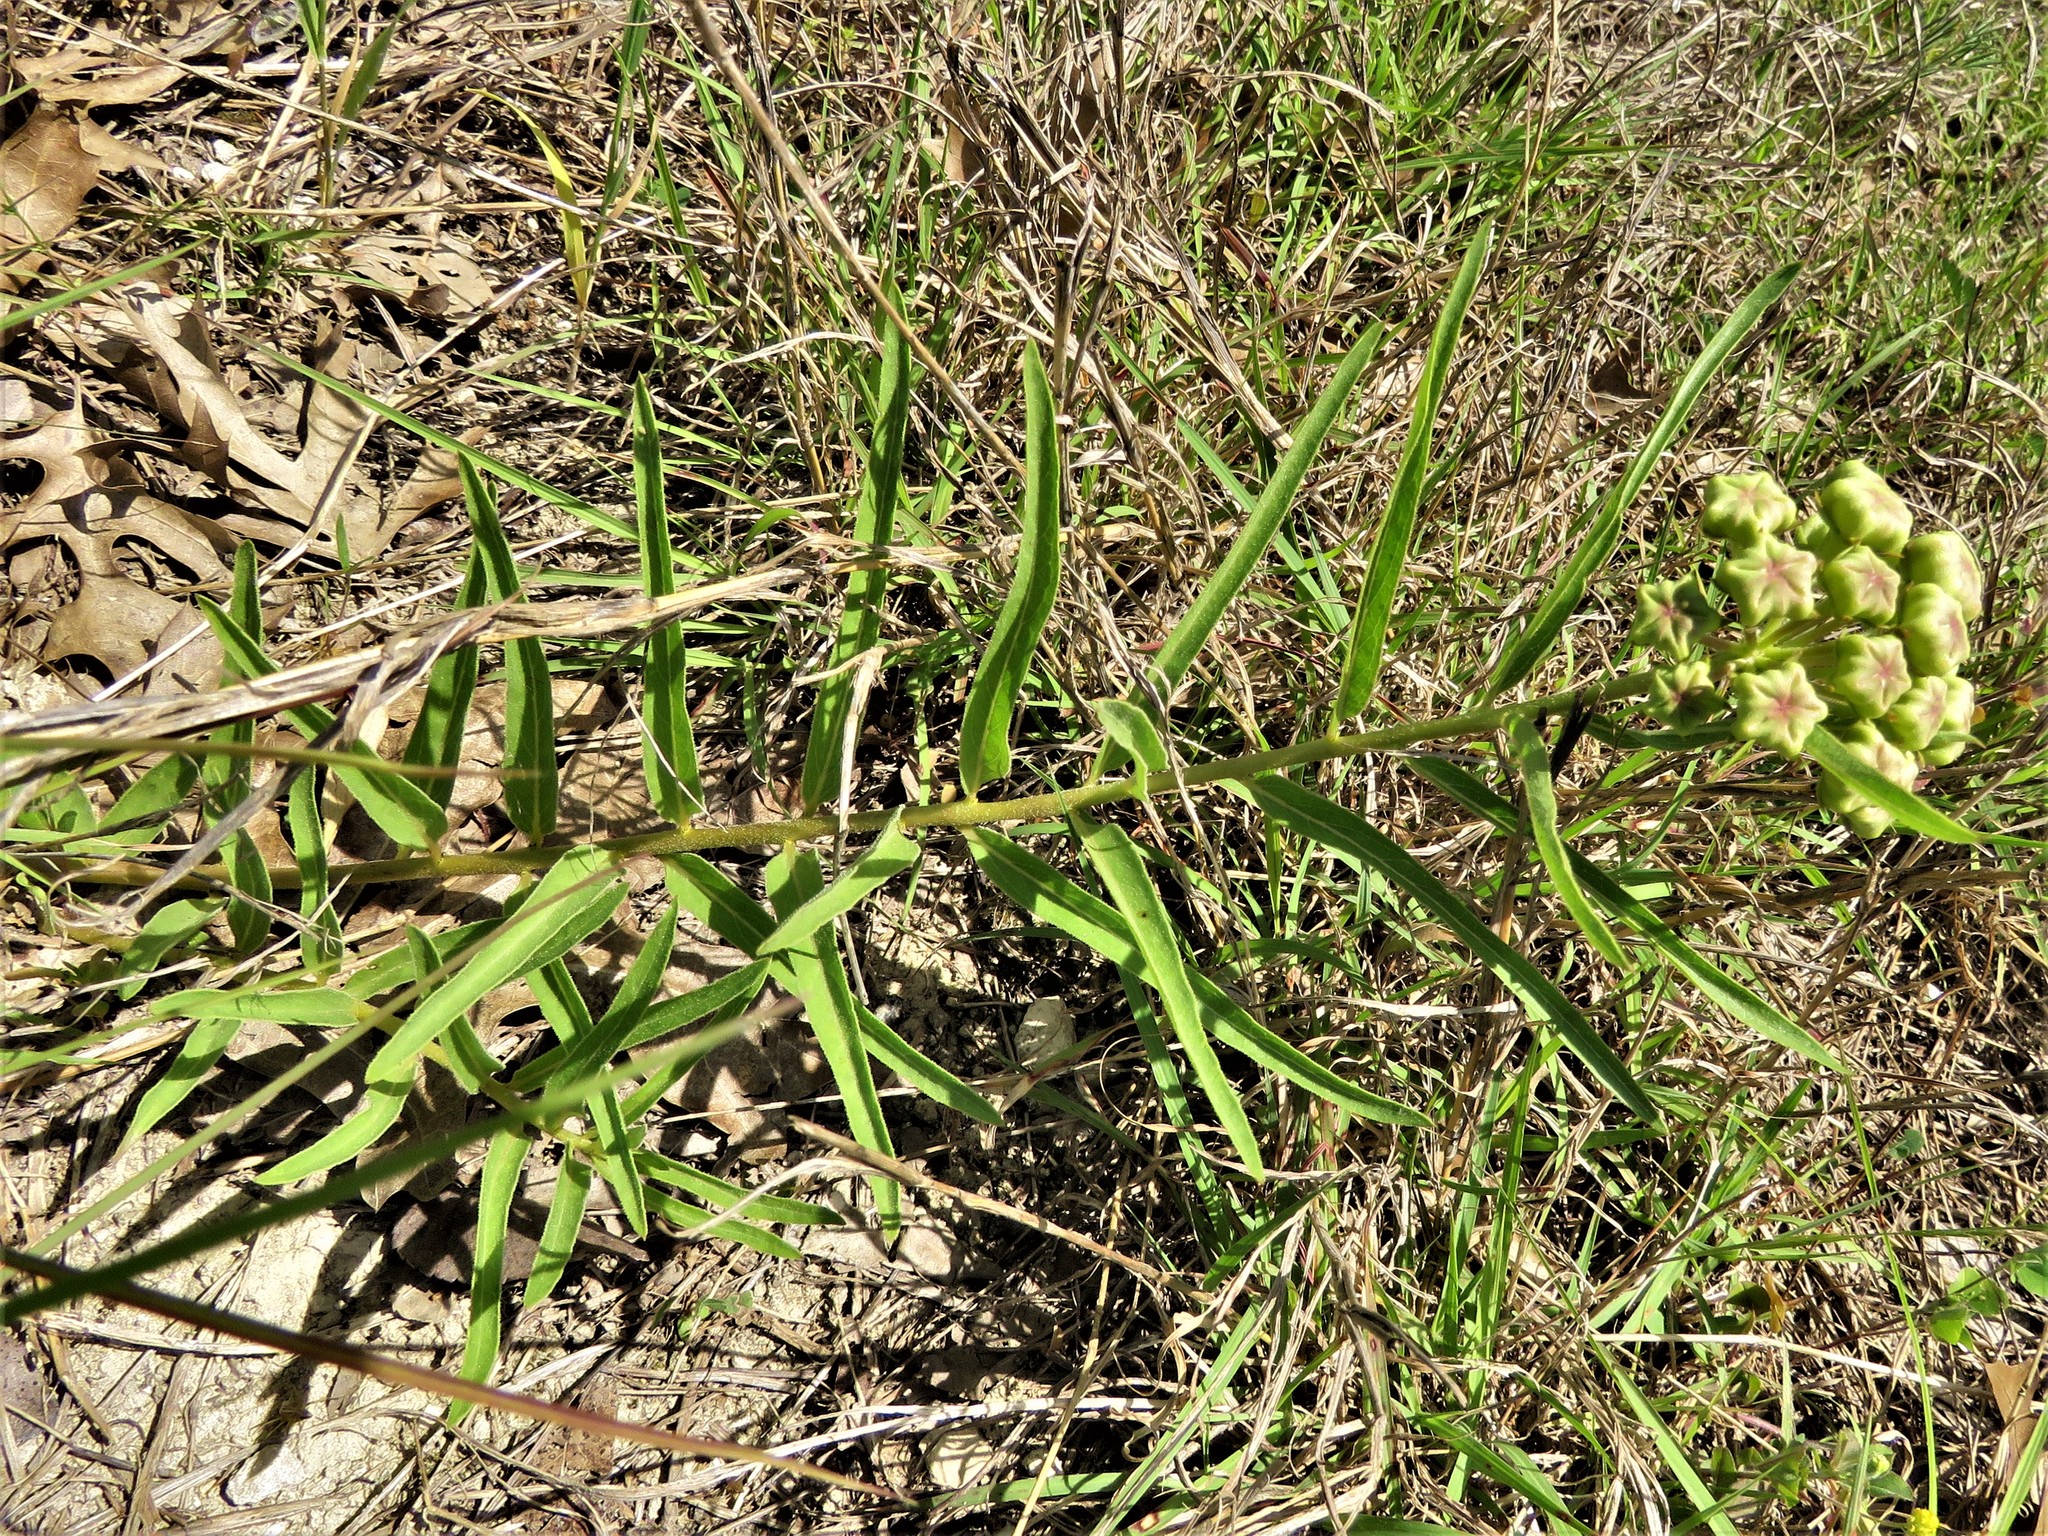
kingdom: Plantae
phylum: Tracheophyta
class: Magnoliopsida
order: Gentianales
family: Apocynaceae
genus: Asclepias
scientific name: Asclepias asperula
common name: Antelope horns
